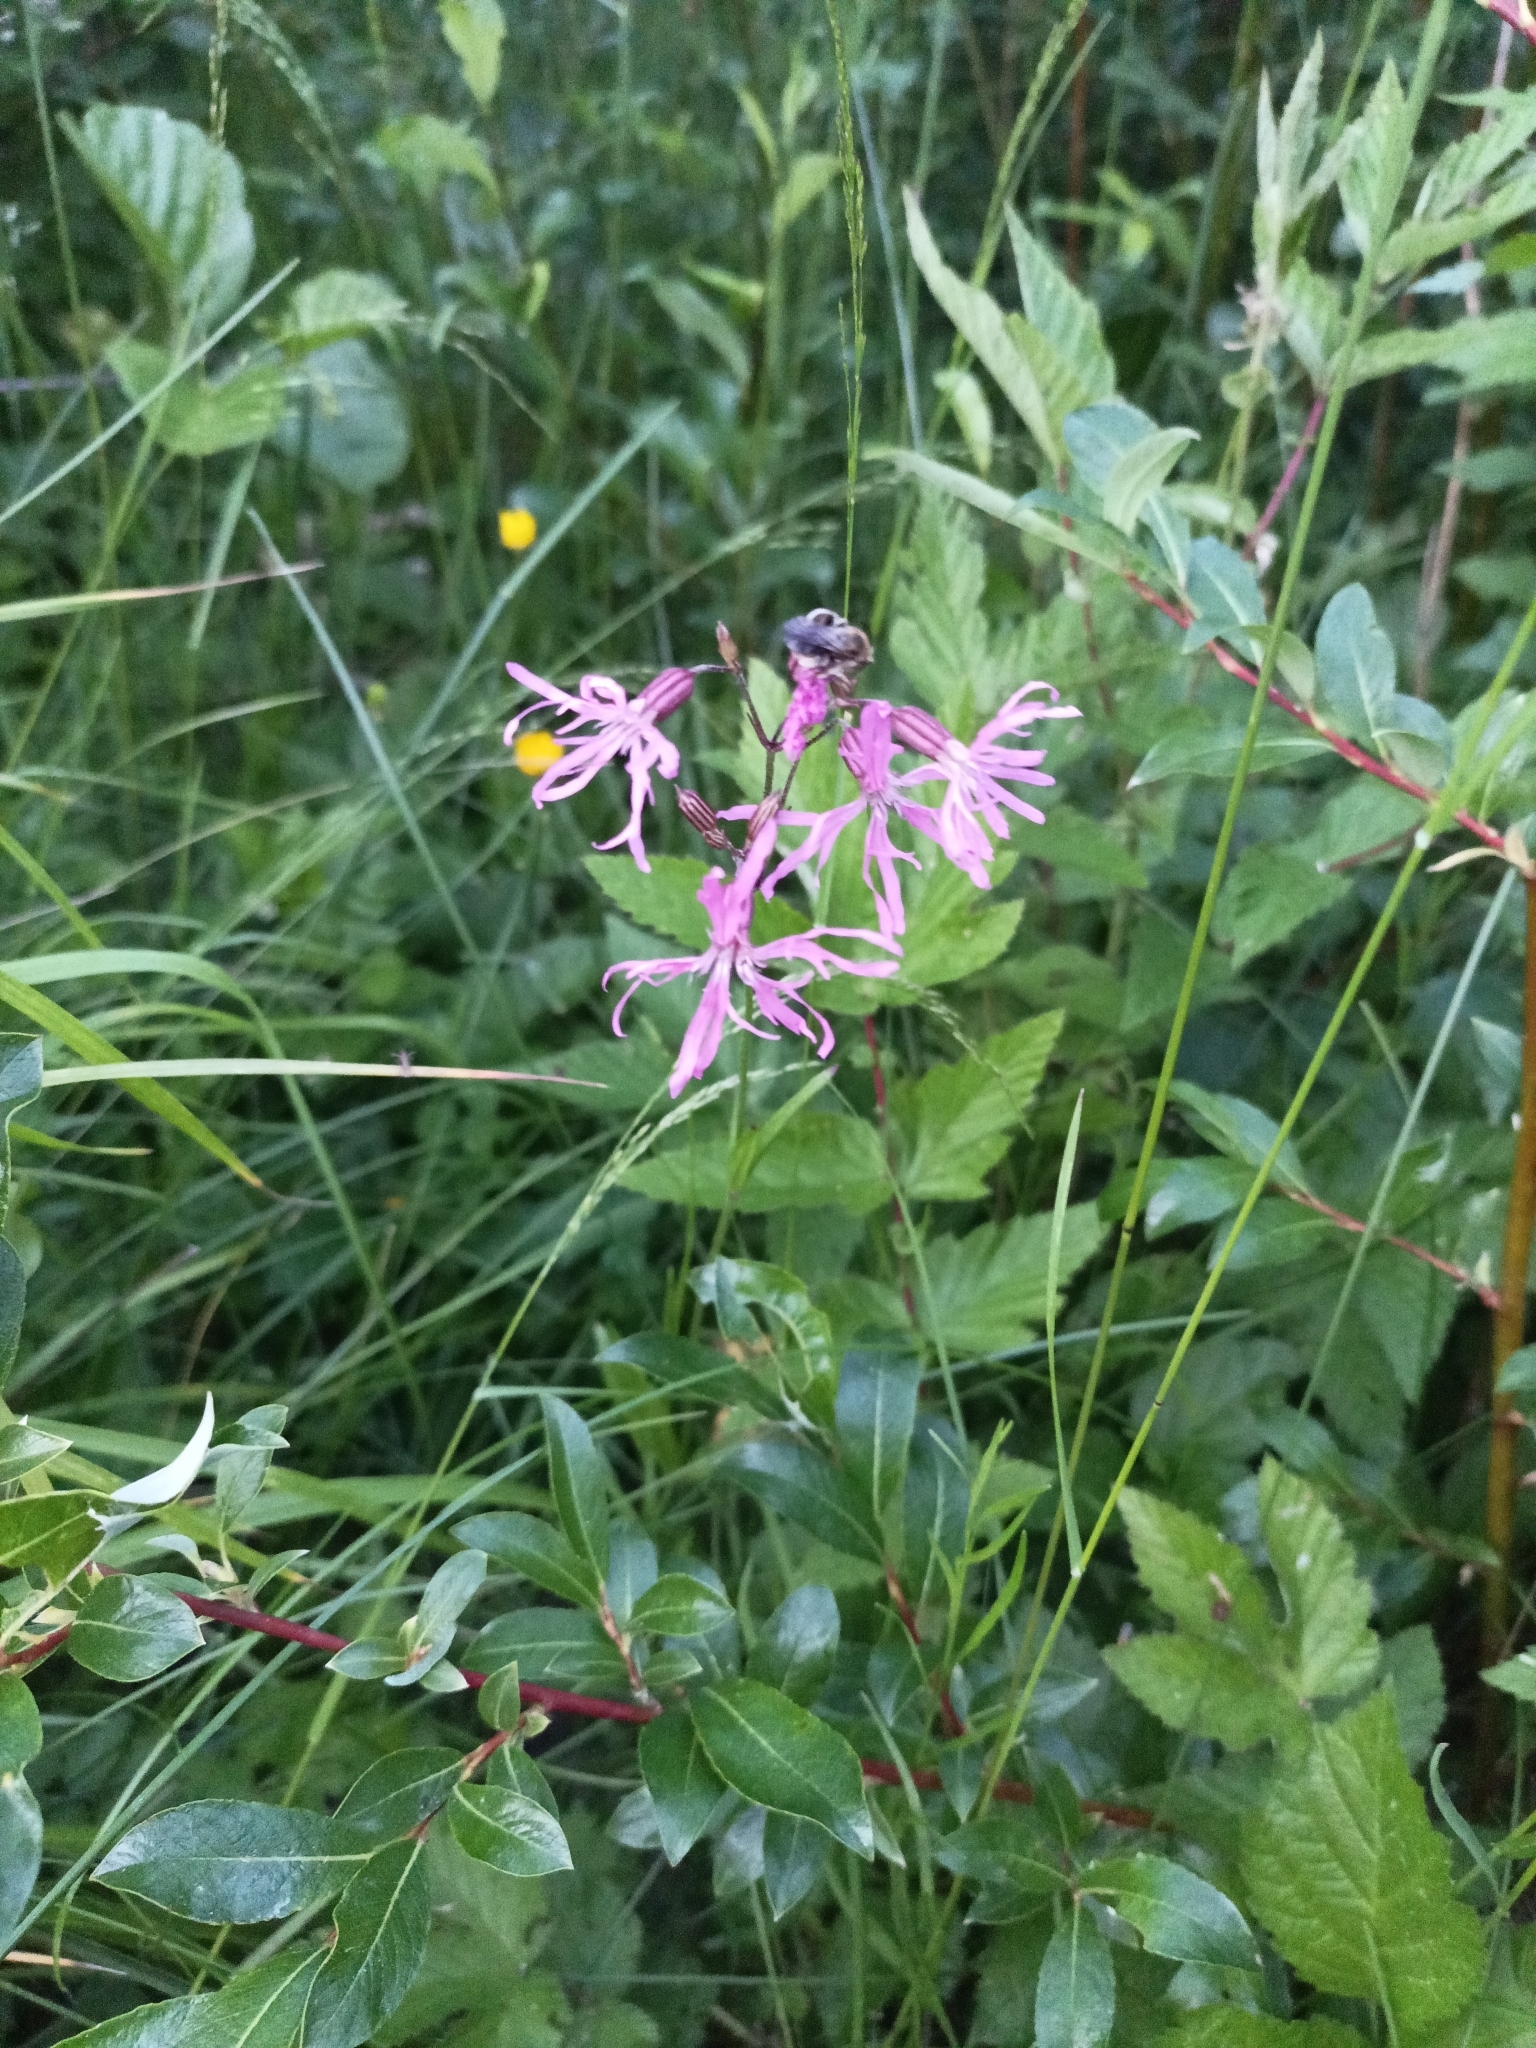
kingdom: Plantae
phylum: Tracheophyta
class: Magnoliopsida
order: Caryophyllales
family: Caryophyllaceae
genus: Silene
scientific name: Silene flos-cuculi
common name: Ragged-robin
